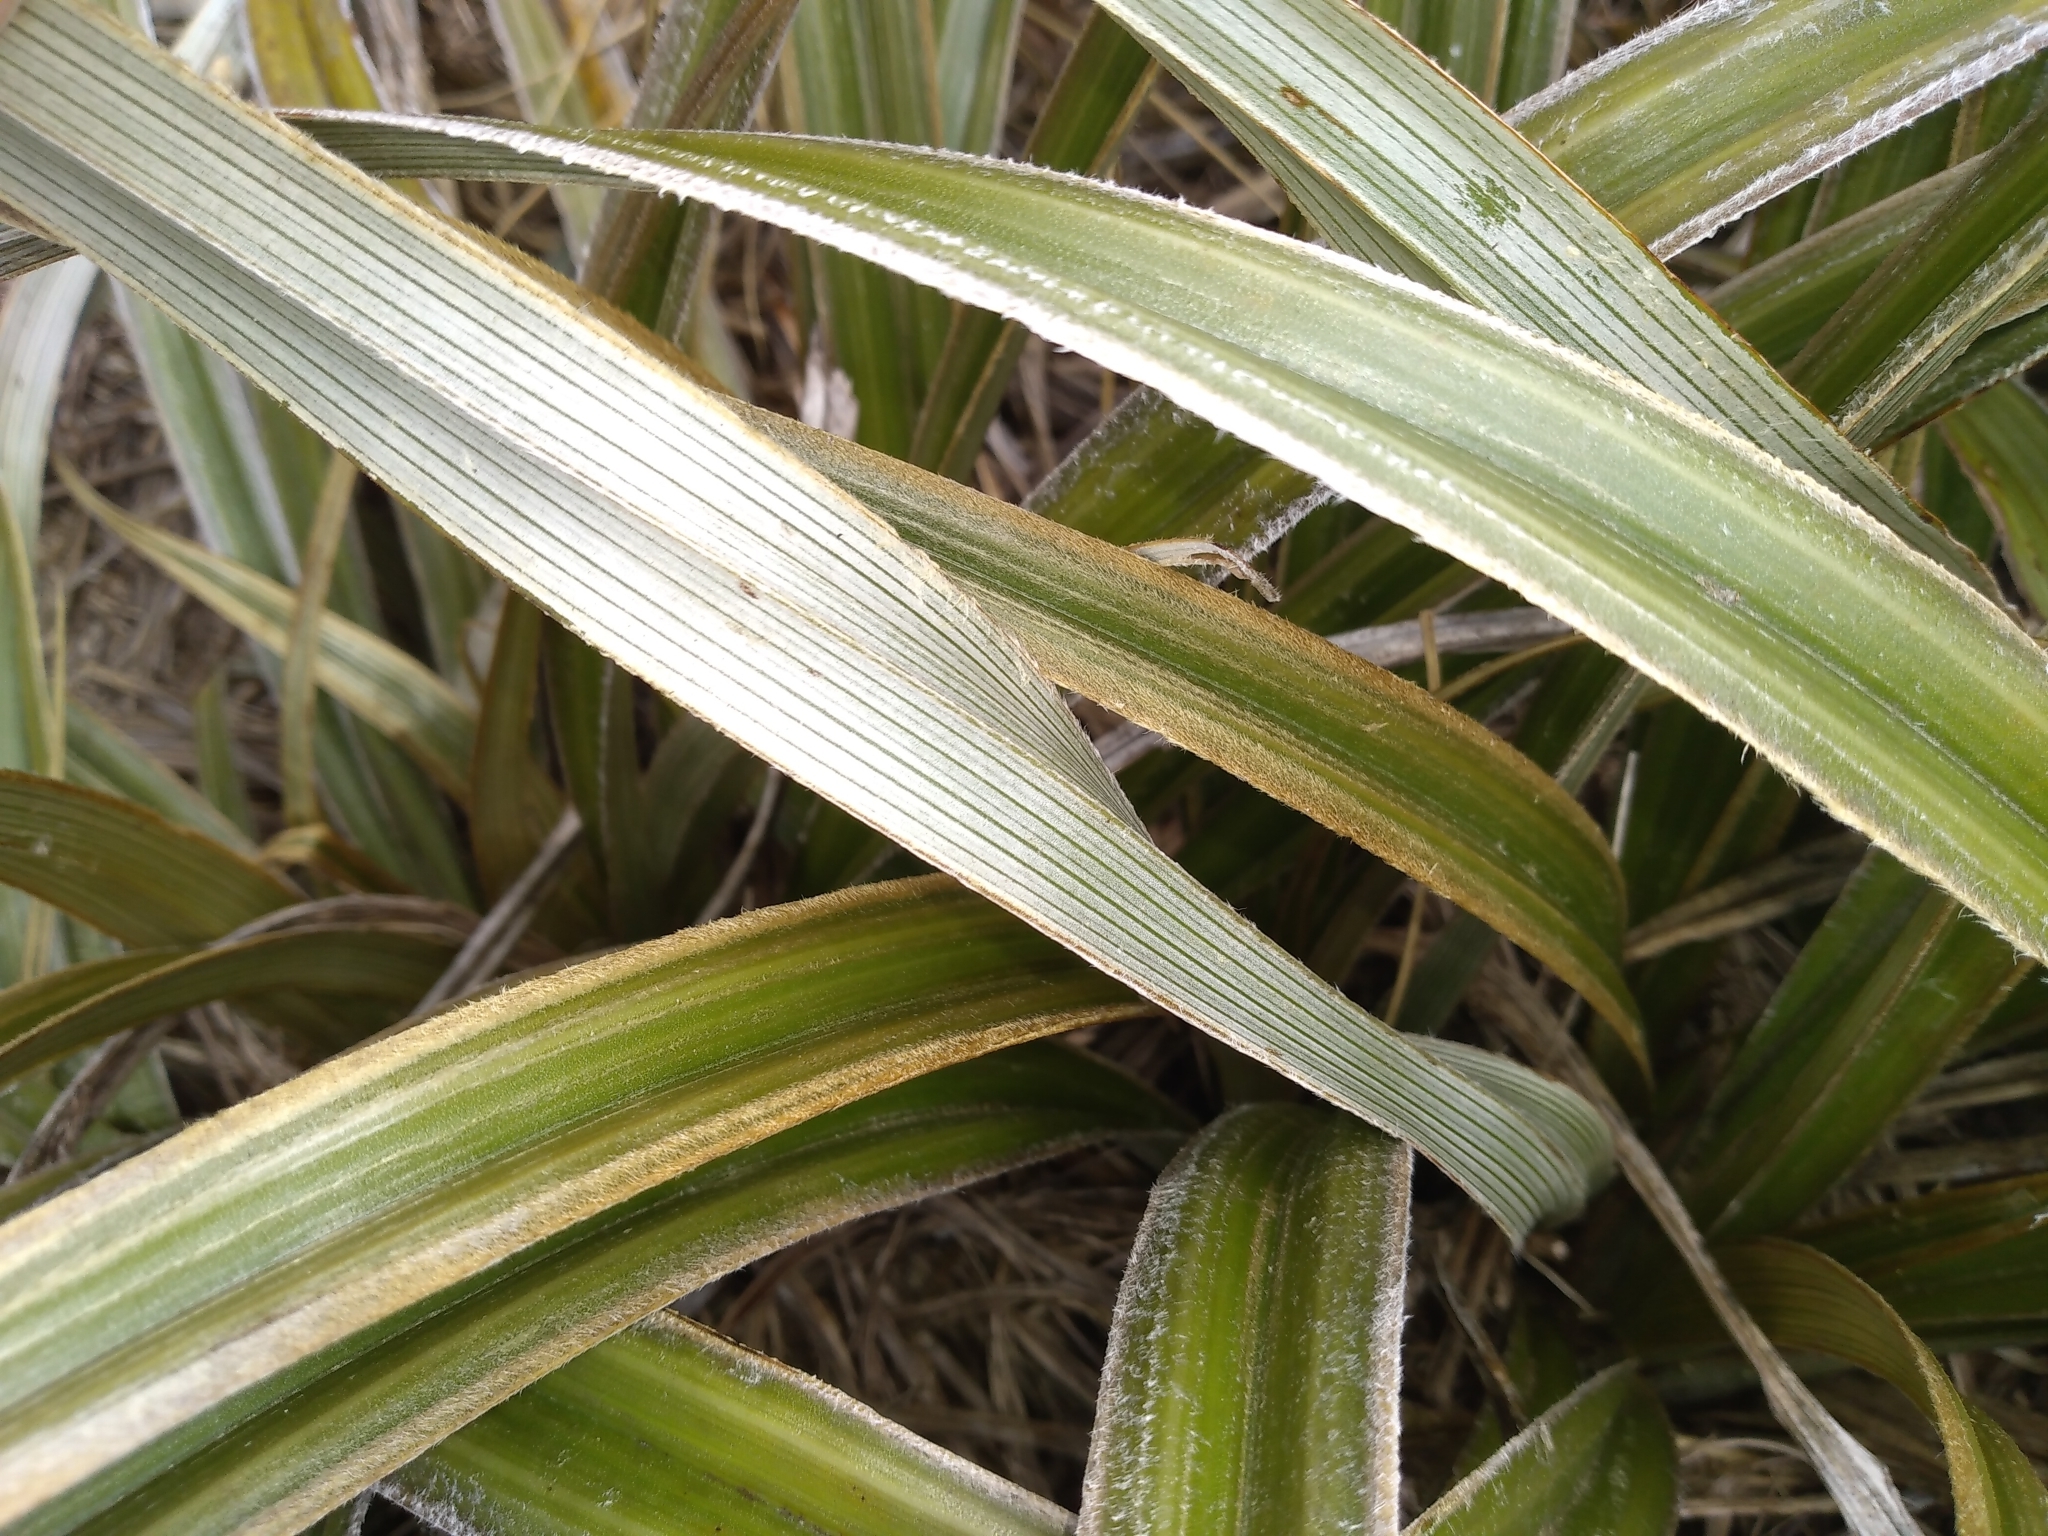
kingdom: Plantae
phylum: Tracheophyta
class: Liliopsida
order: Asparagales
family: Asteliaceae
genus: Astelia
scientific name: Astelia nervosa
